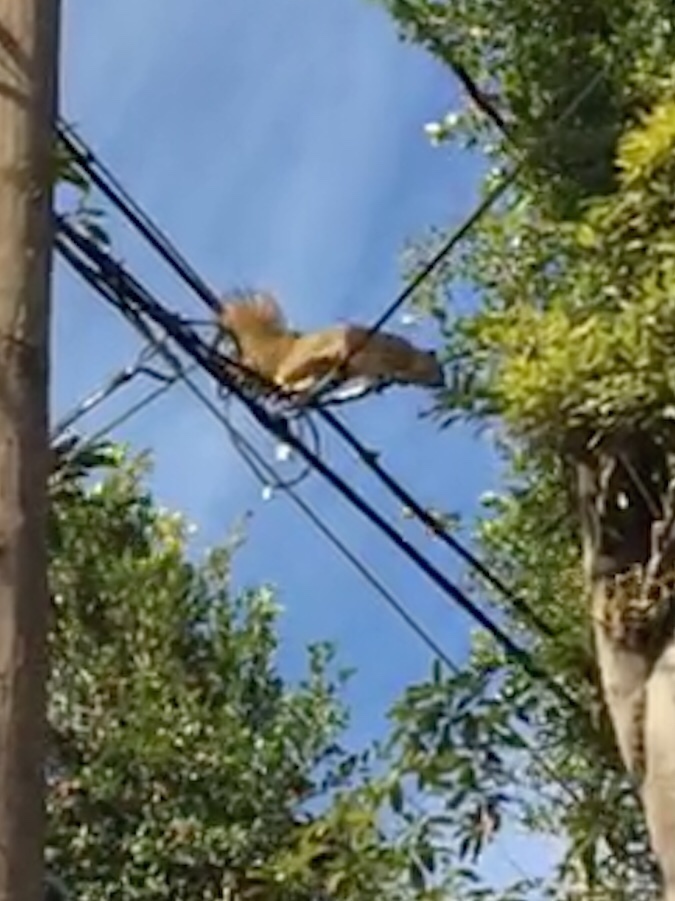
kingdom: Animalia
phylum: Chordata
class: Mammalia
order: Rodentia
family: Sciuridae
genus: Sciurus
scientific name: Sciurus niger
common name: Fox squirrel
